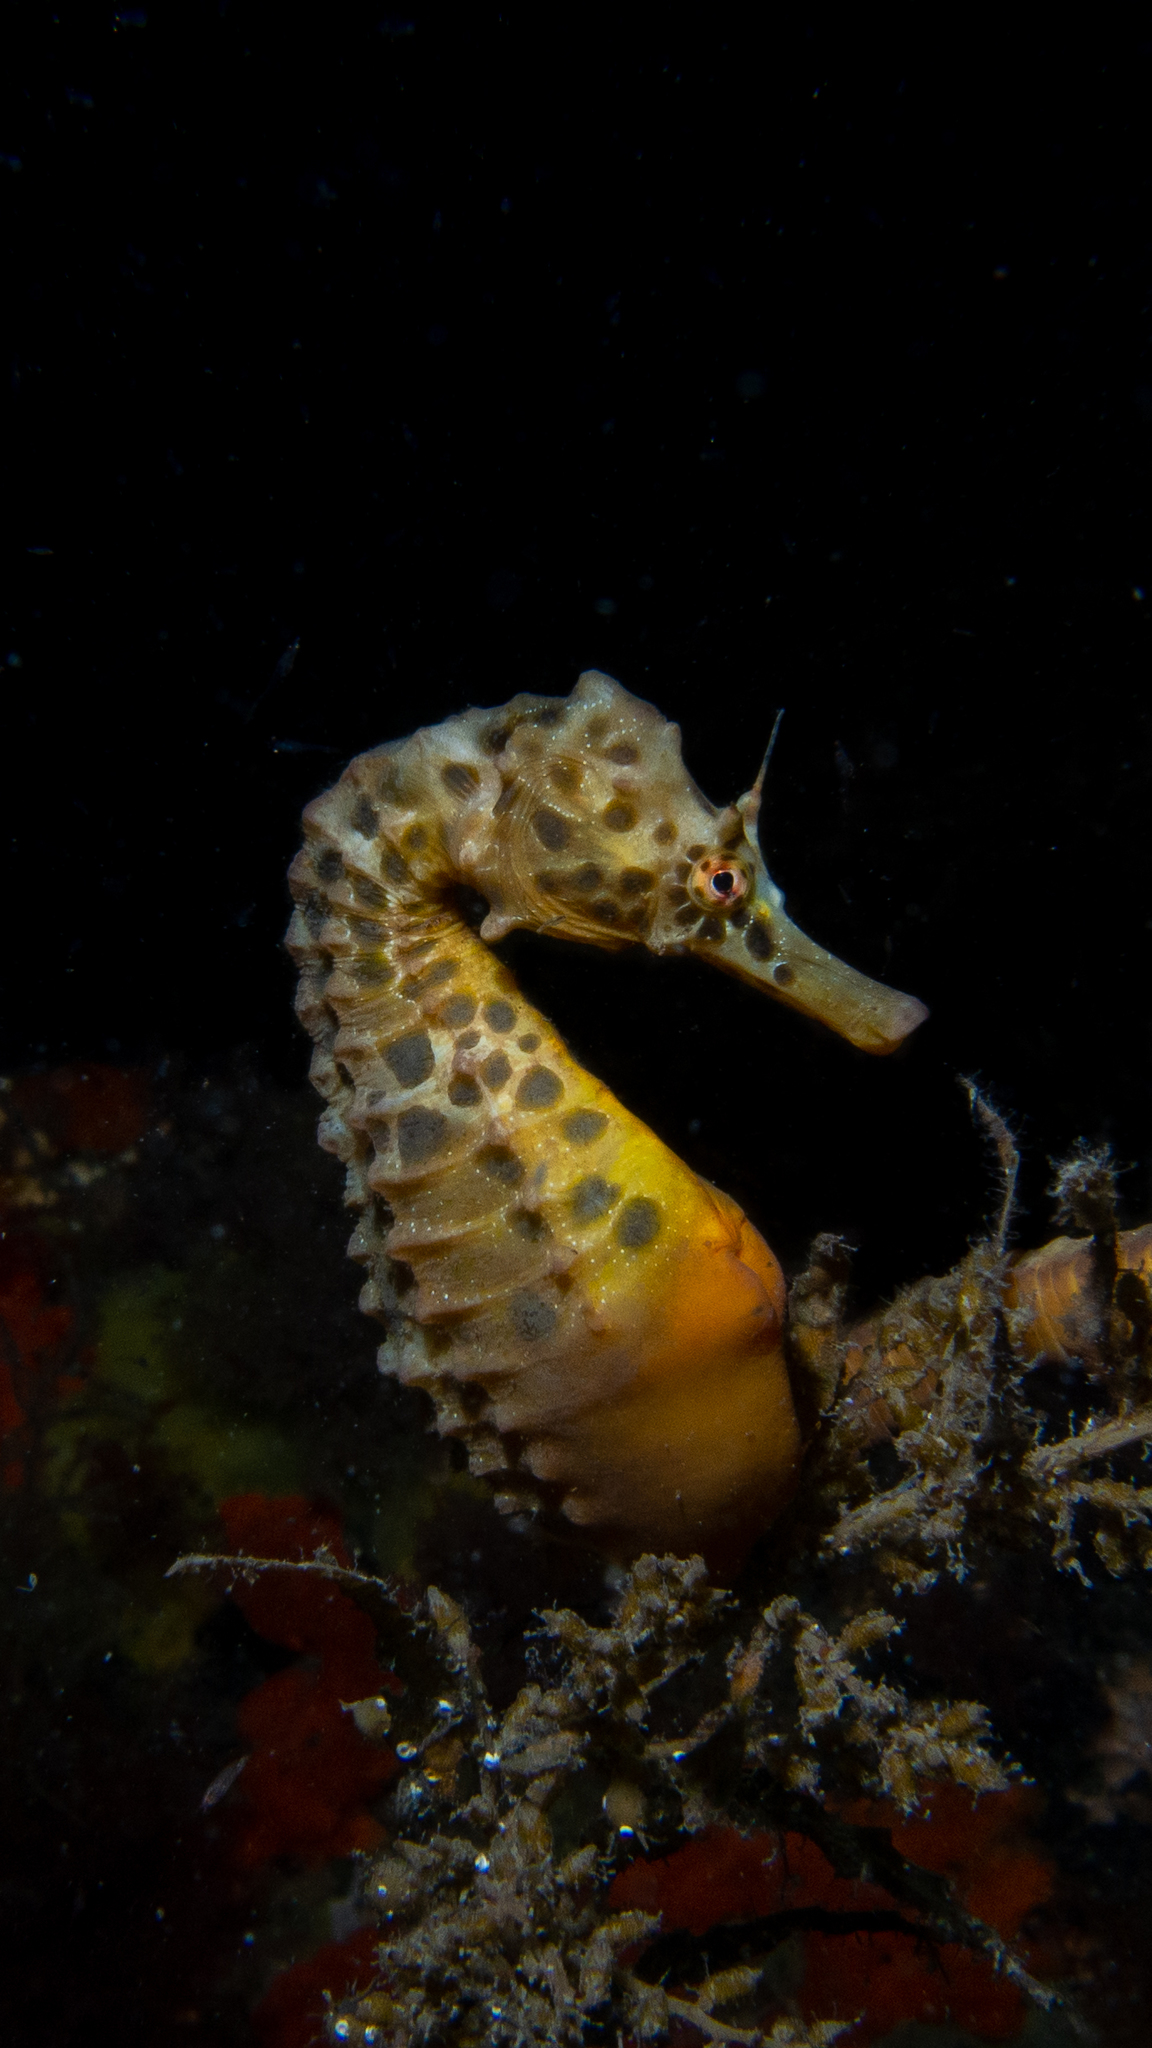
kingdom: Animalia
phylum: Chordata
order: Syngnathiformes
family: Syngnathidae
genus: Hippocampus
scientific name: Hippocampus abdominalis
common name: Big-belly seahorse
